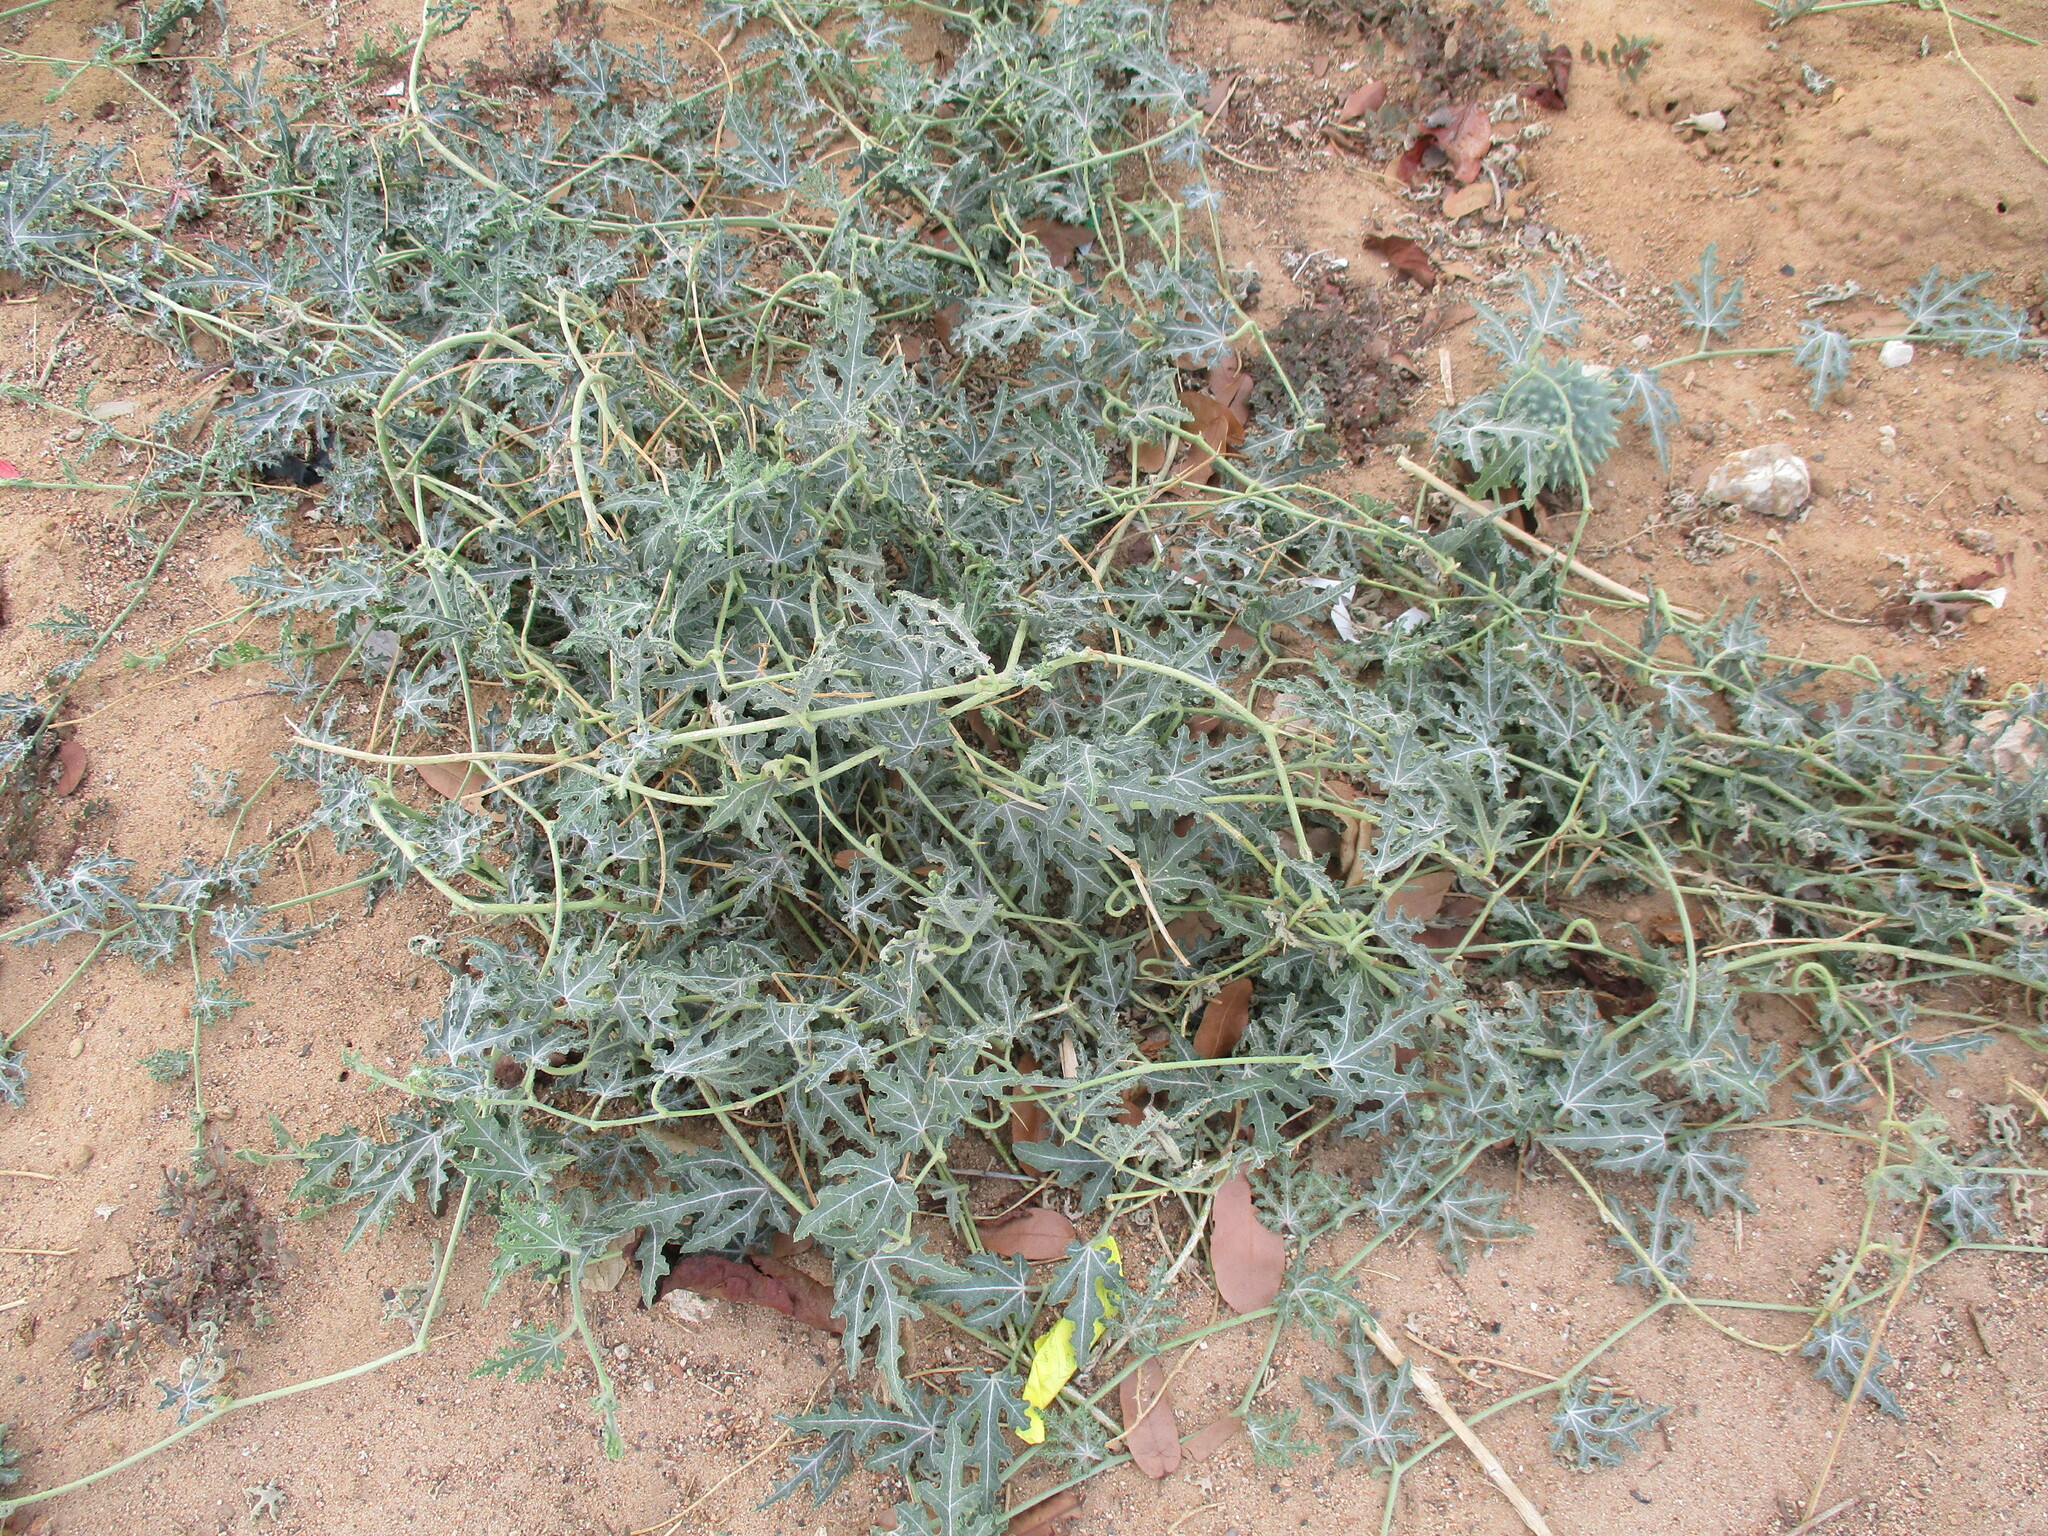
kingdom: Plantae
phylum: Tracheophyta
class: Magnoliopsida
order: Cucurbitales
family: Cucurbitaceae
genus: Citrullus
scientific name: Citrullus naudinianus
